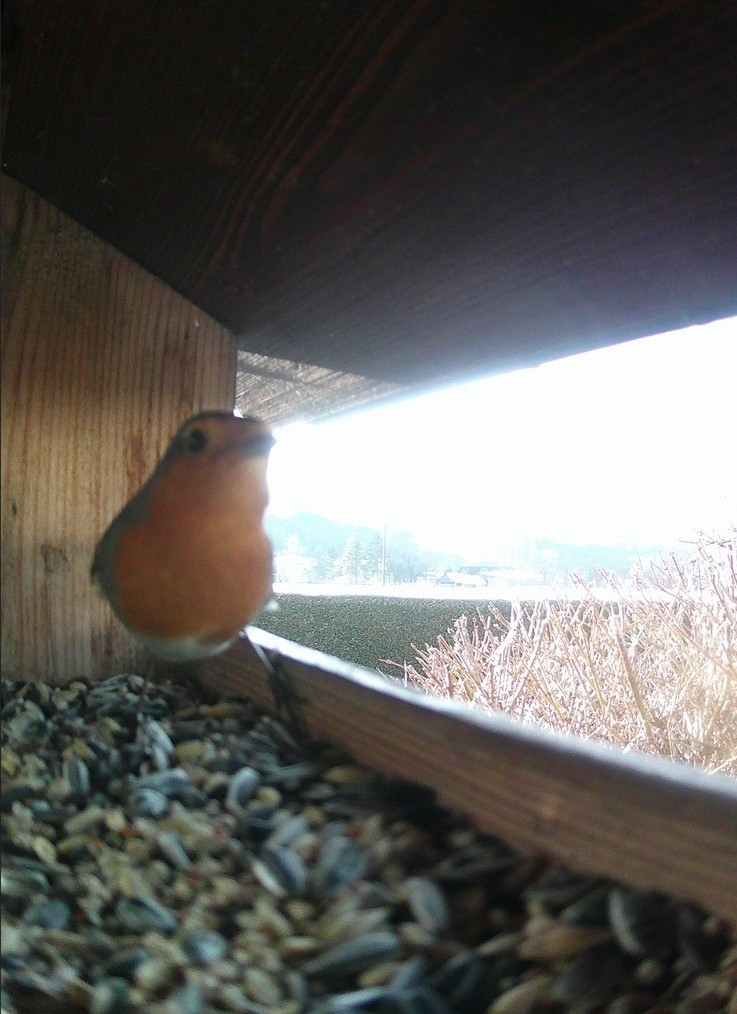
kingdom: Animalia
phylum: Chordata
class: Aves
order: Passeriformes
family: Muscicapidae
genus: Erithacus
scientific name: Erithacus rubecula
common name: European robin
